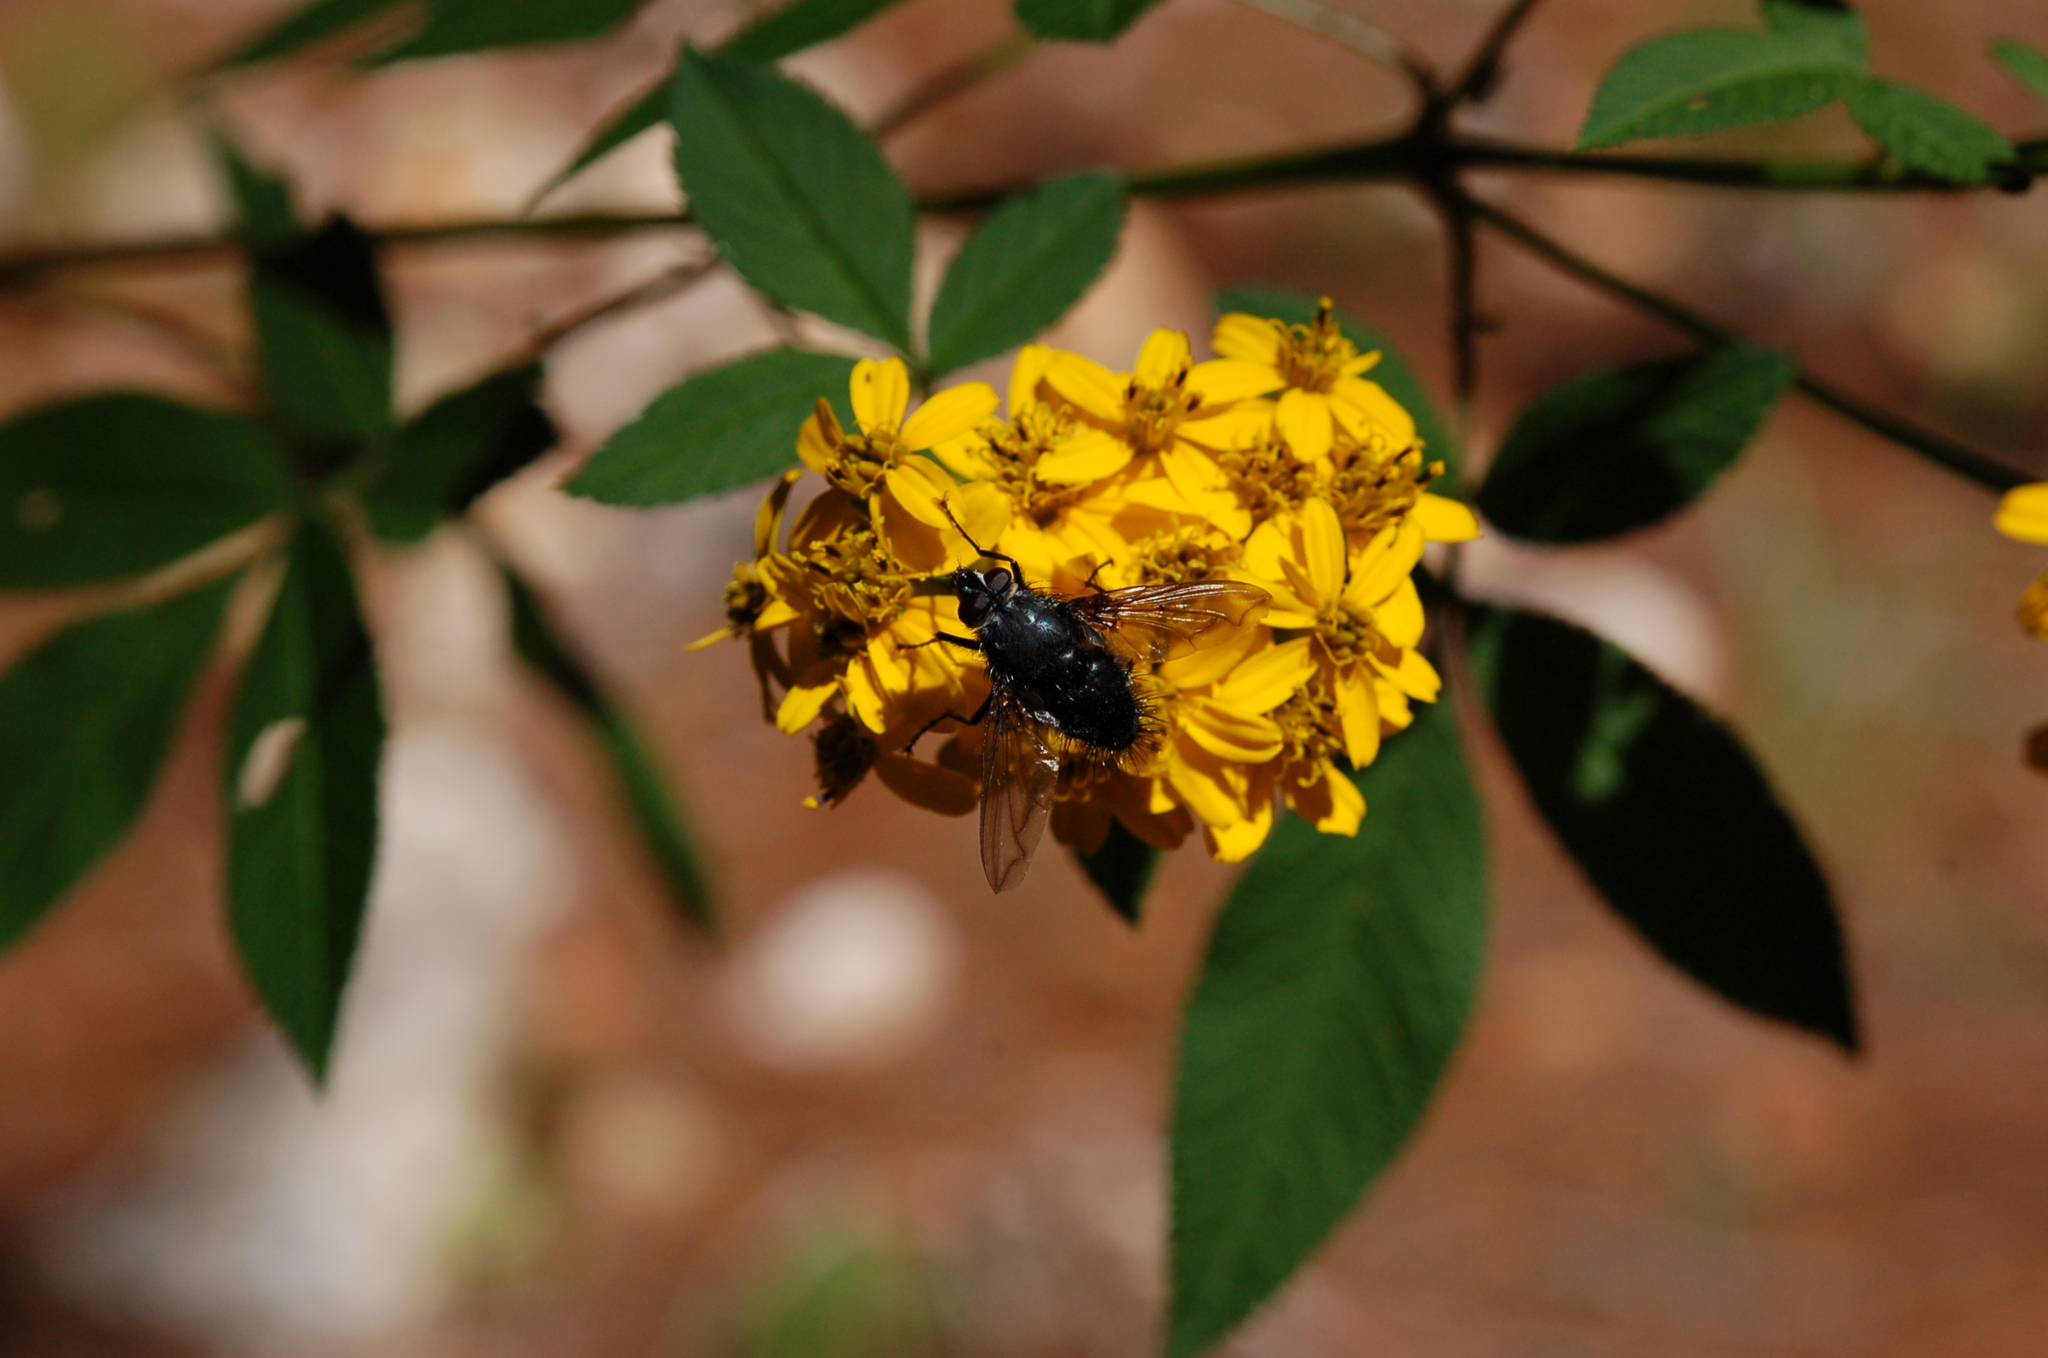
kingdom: Plantae
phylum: Tracheophyta
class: Magnoliopsida
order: Asterales
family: Asteraceae
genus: Tagetes
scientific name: Tagetes nelsonii
